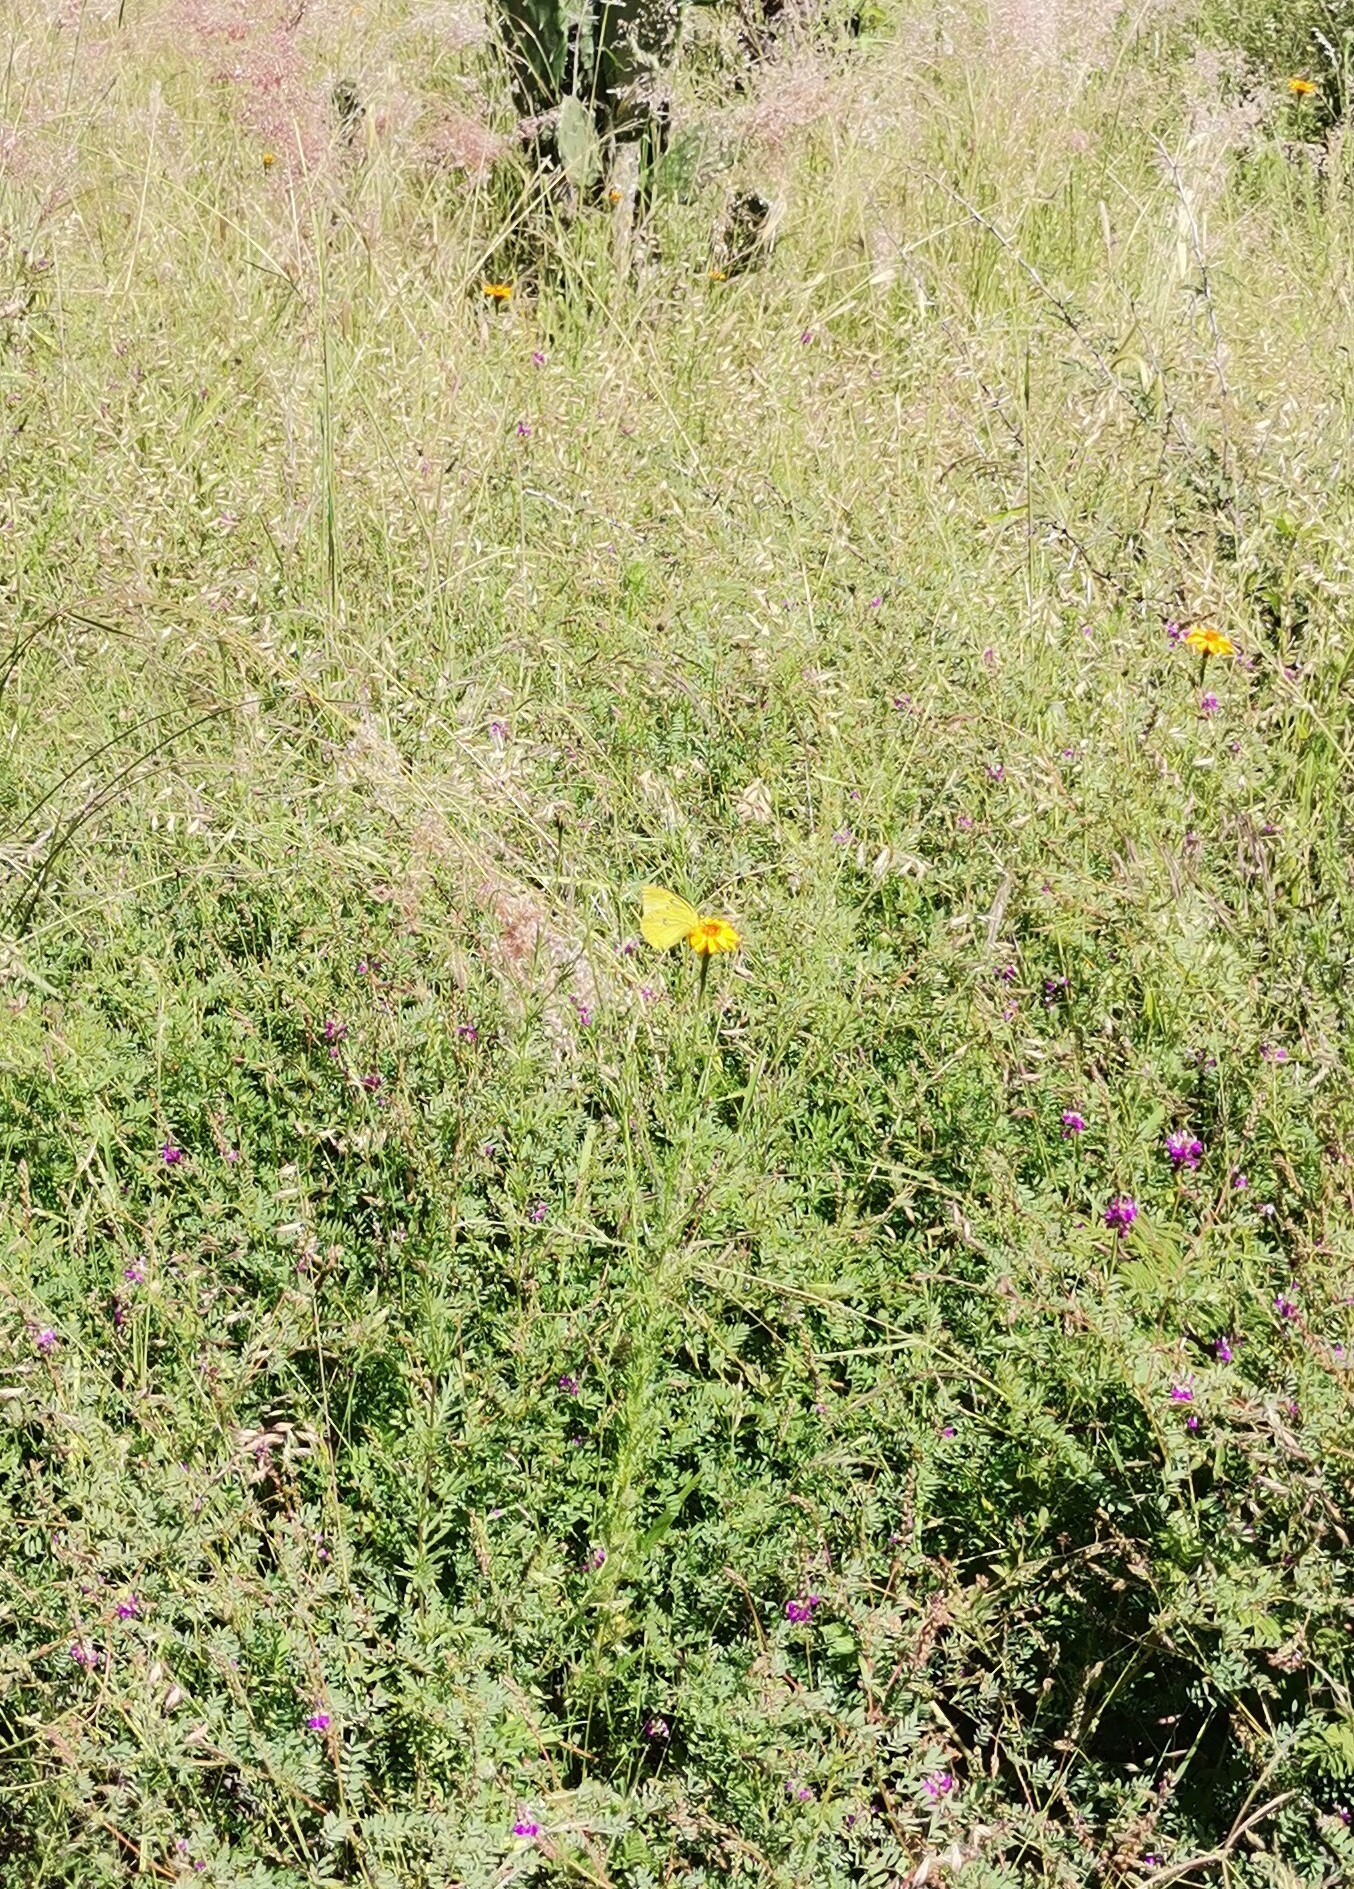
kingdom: Plantae
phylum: Tracheophyta
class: Liliopsida
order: Poales
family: Poaceae
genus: Melinis
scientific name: Melinis repens
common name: Rose natal grass
